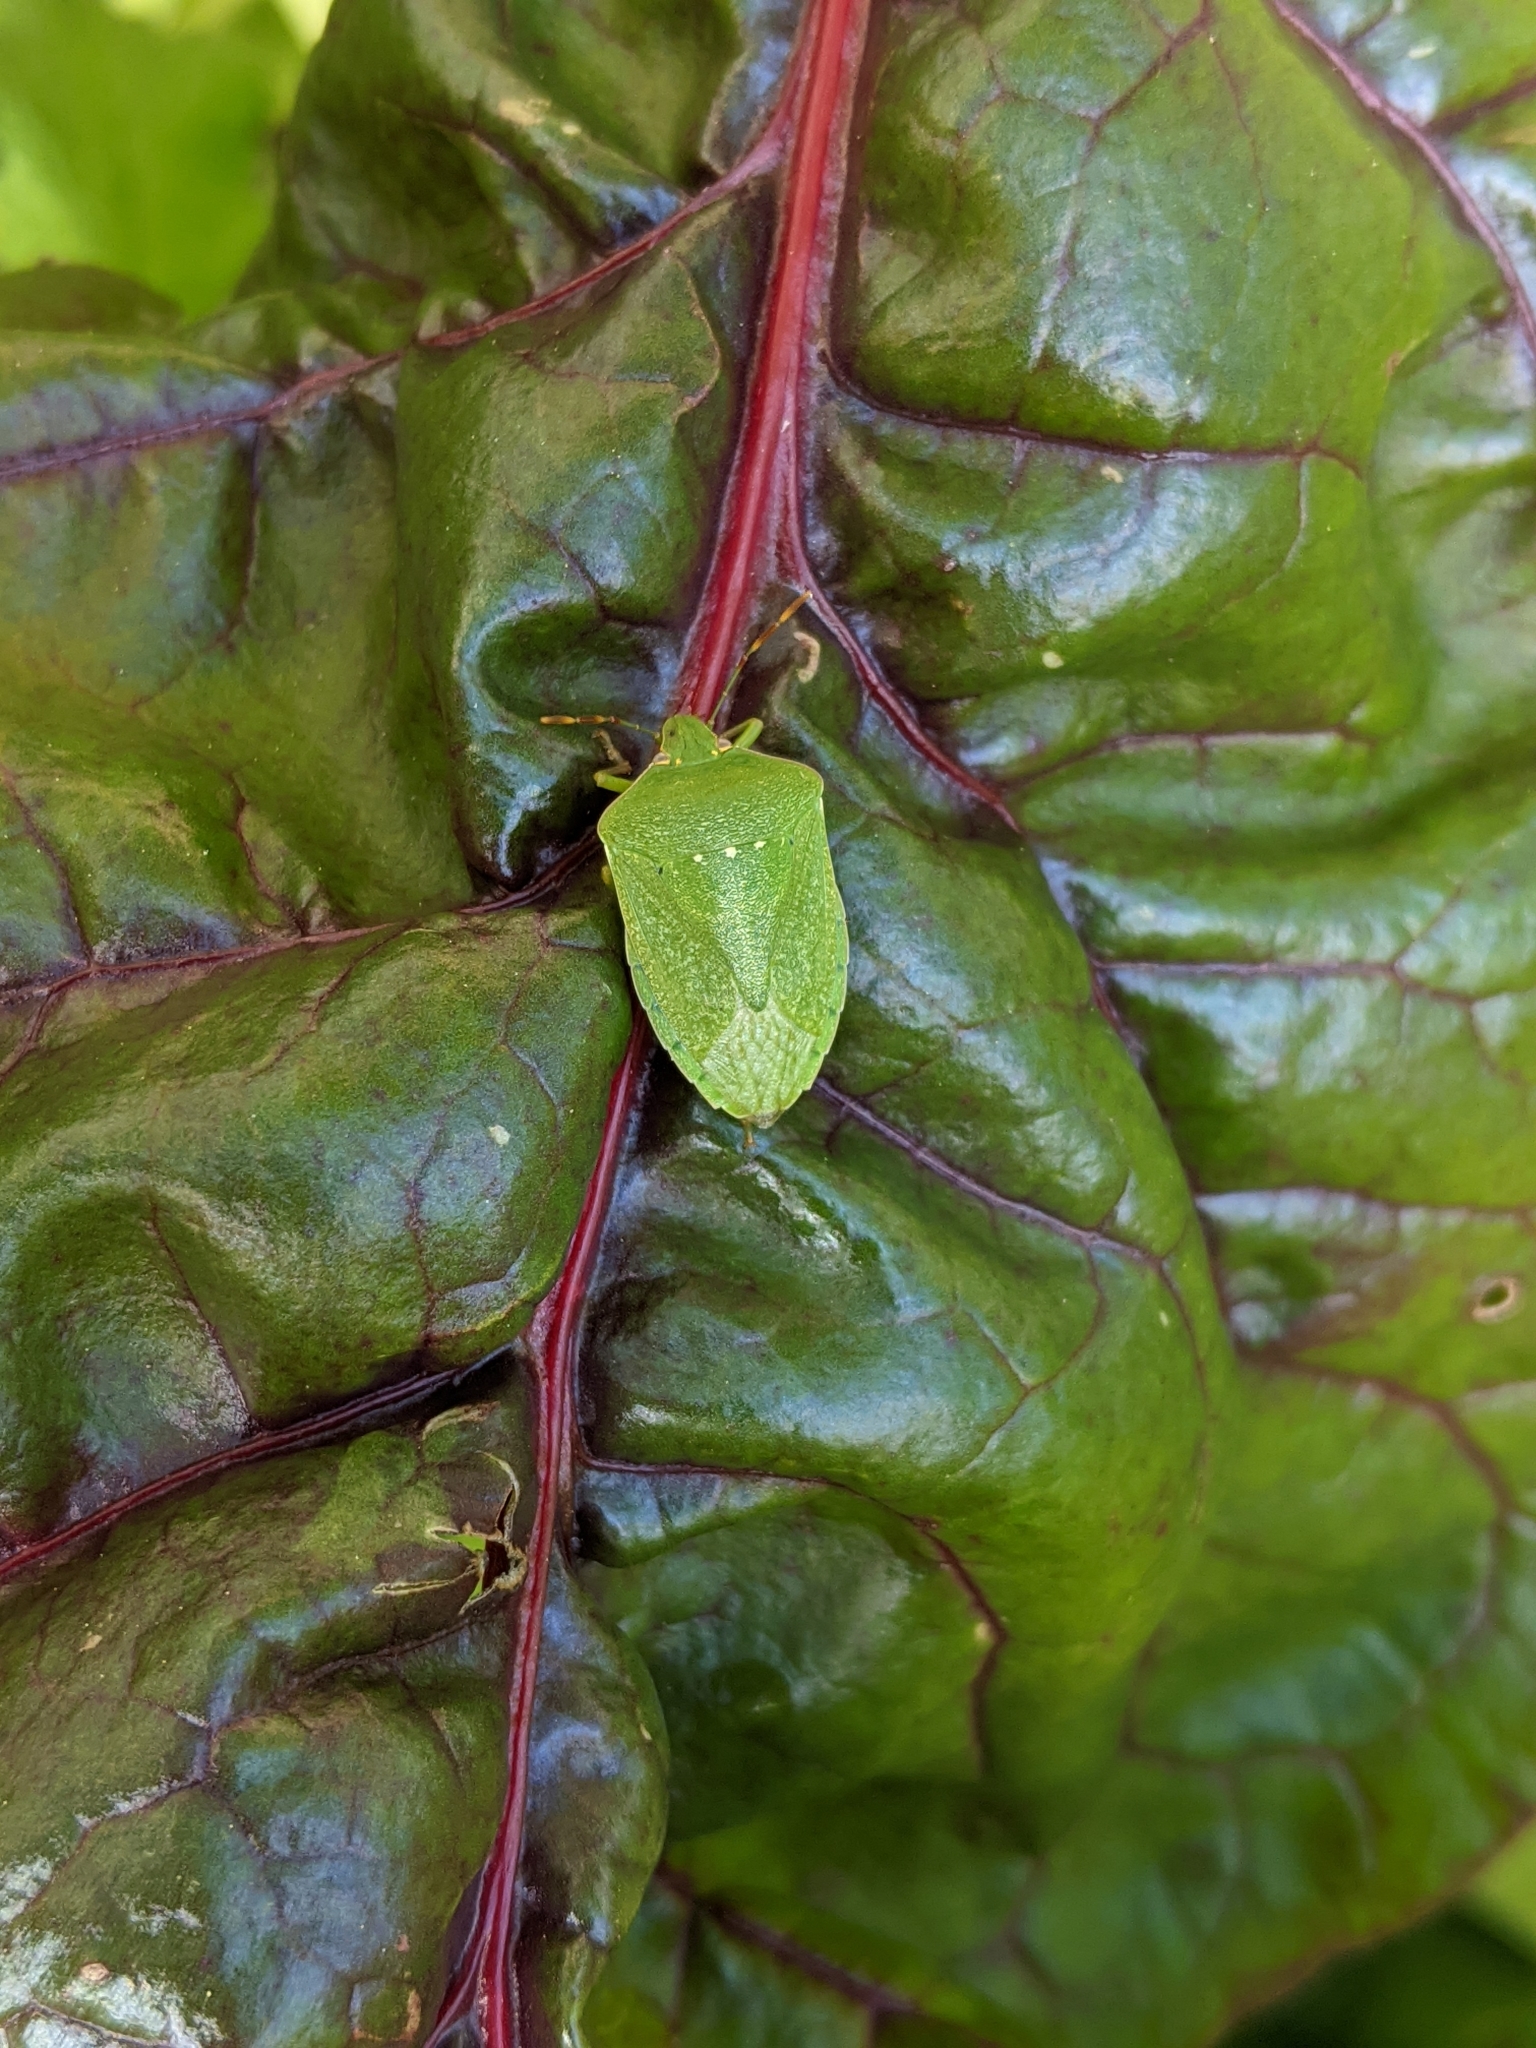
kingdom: Animalia
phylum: Arthropoda
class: Insecta
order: Hemiptera
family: Pentatomidae
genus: Nezara
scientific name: Nezara viridula
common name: Southern green stink bug
